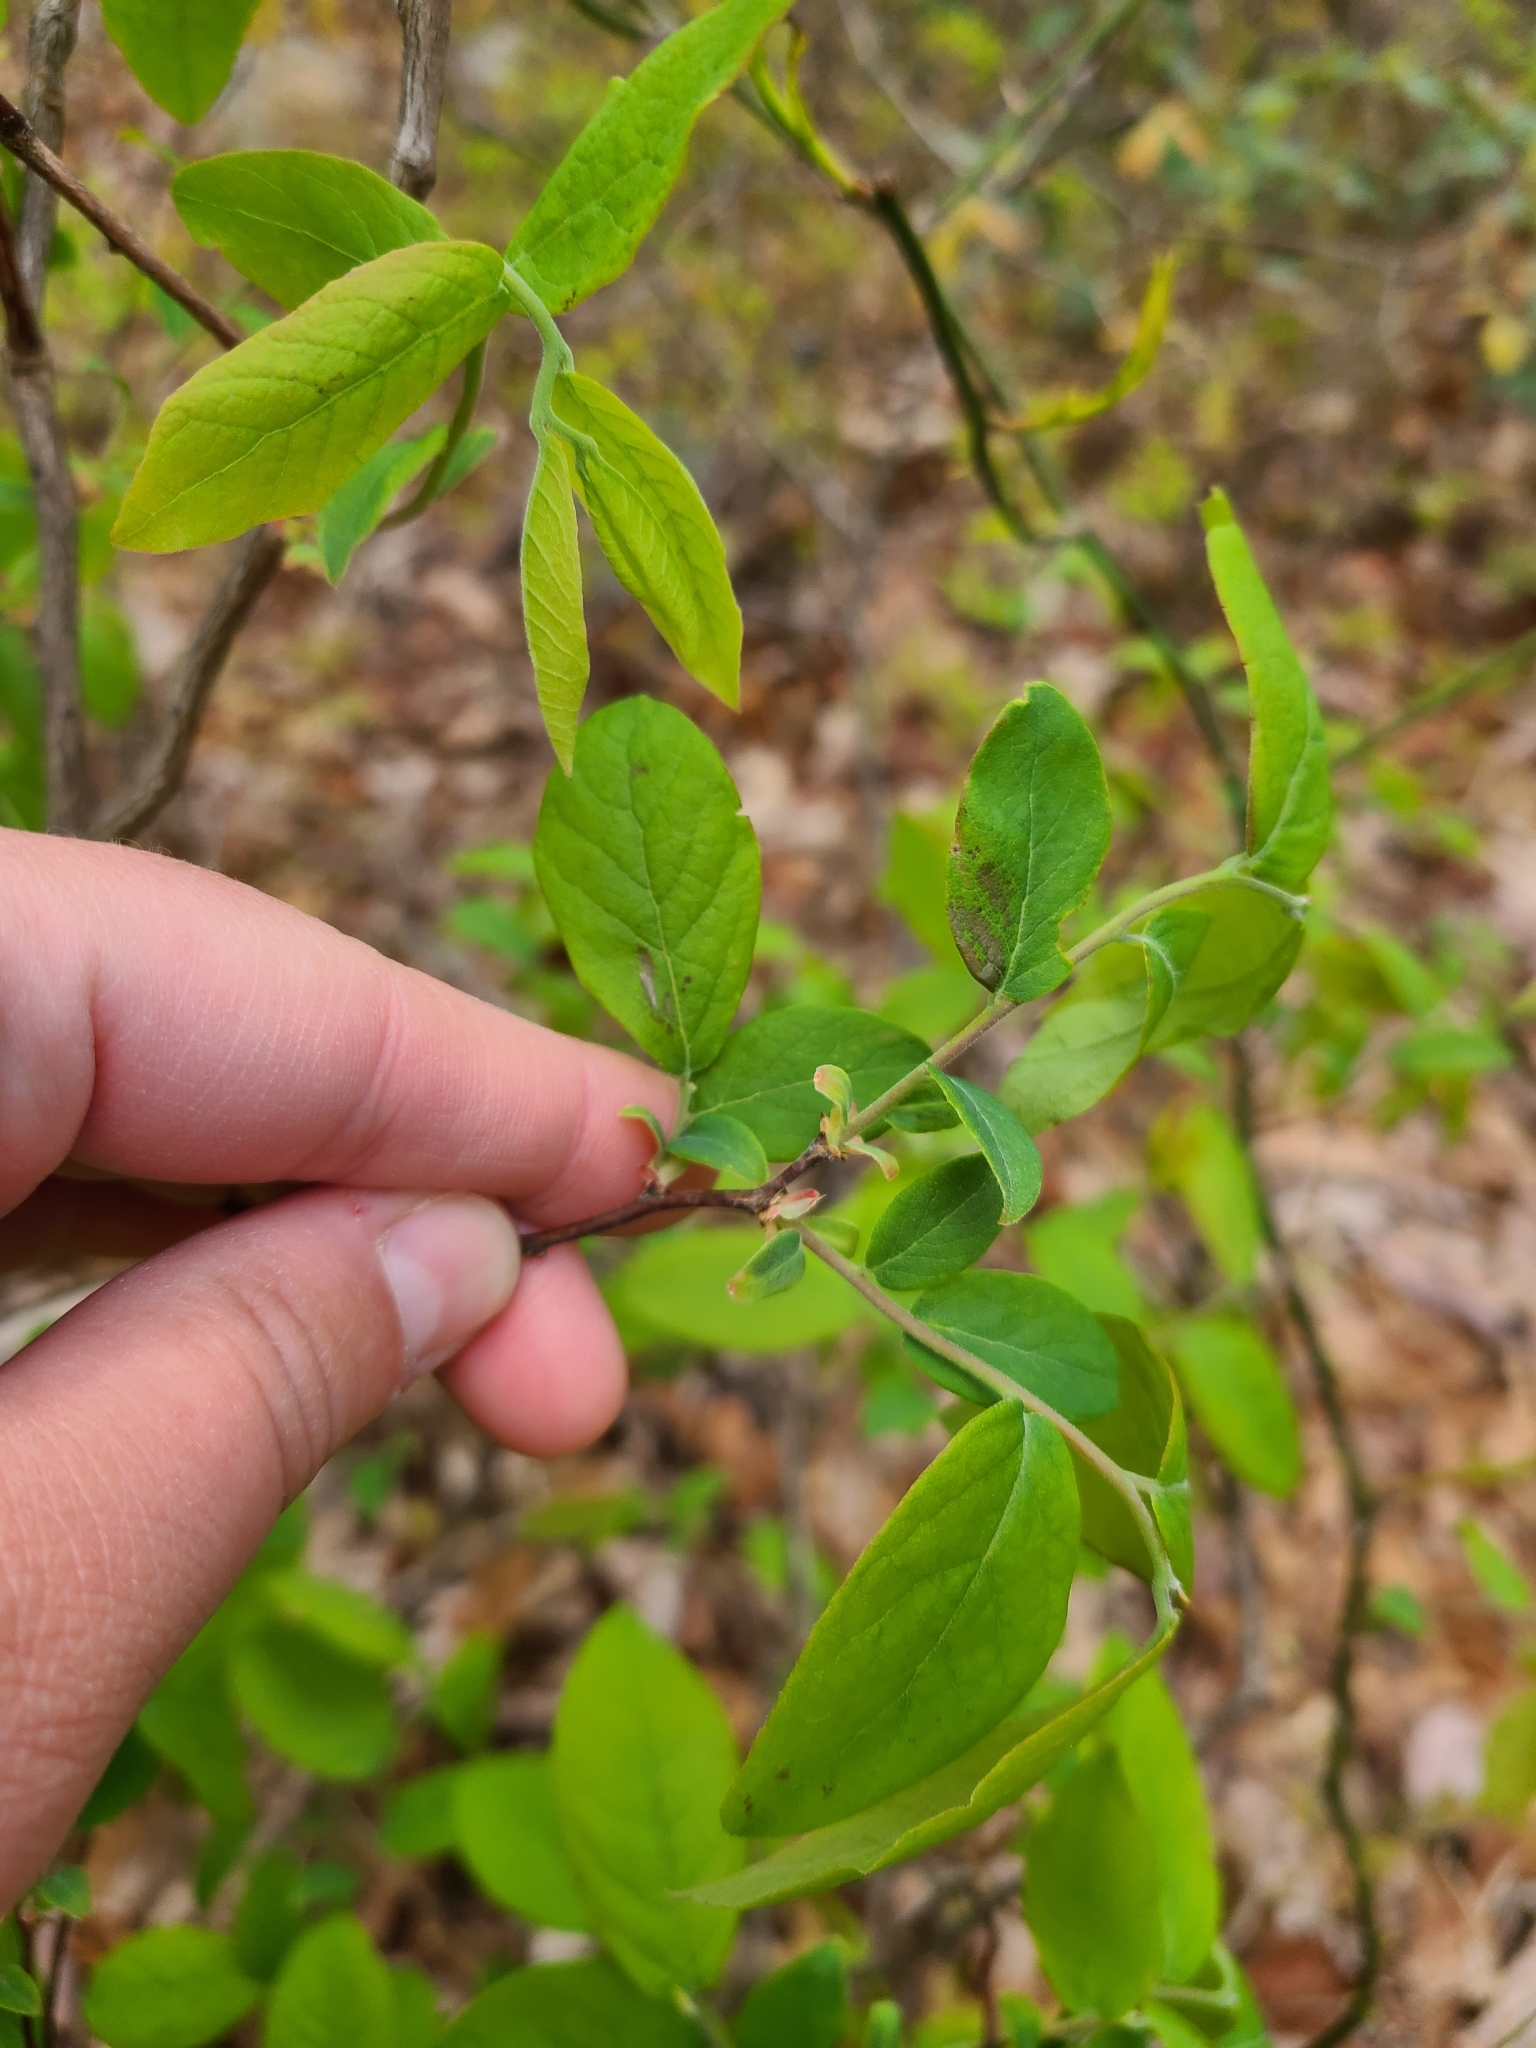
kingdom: Plantae
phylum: Tracheophyta
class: Magnoliopsida
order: Santalales
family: Thesiaceae
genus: Buckleya
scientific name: Buckleya distichophylla
